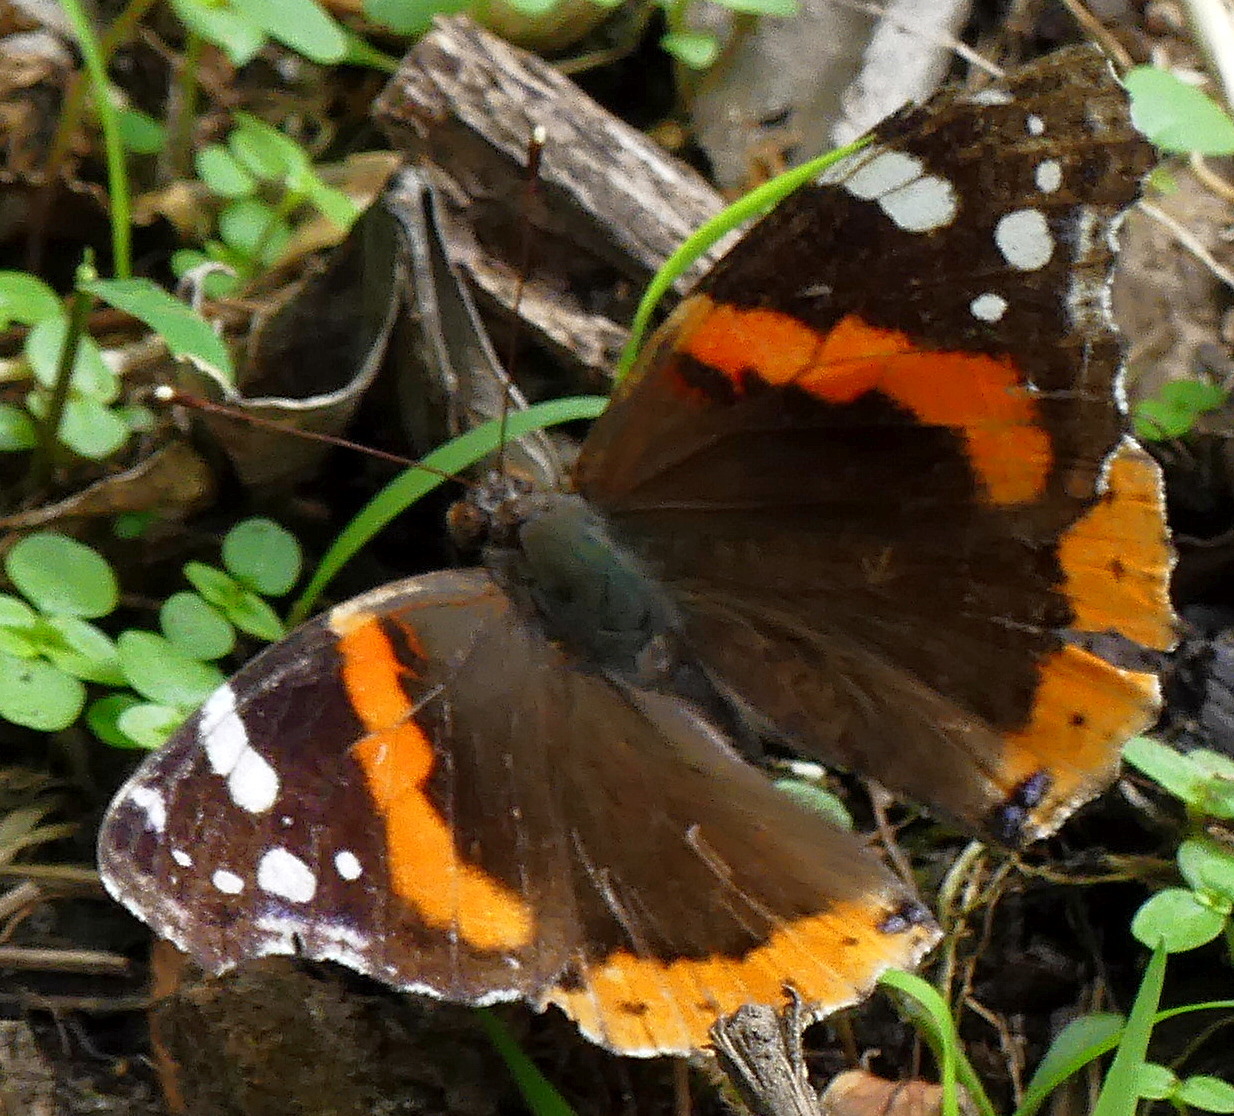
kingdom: Animalia
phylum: Arthropoda
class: Insecta
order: Lepidoptera
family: Nymphalidae
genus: Vanessa
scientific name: Vanessa atalanta
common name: Red admiral
